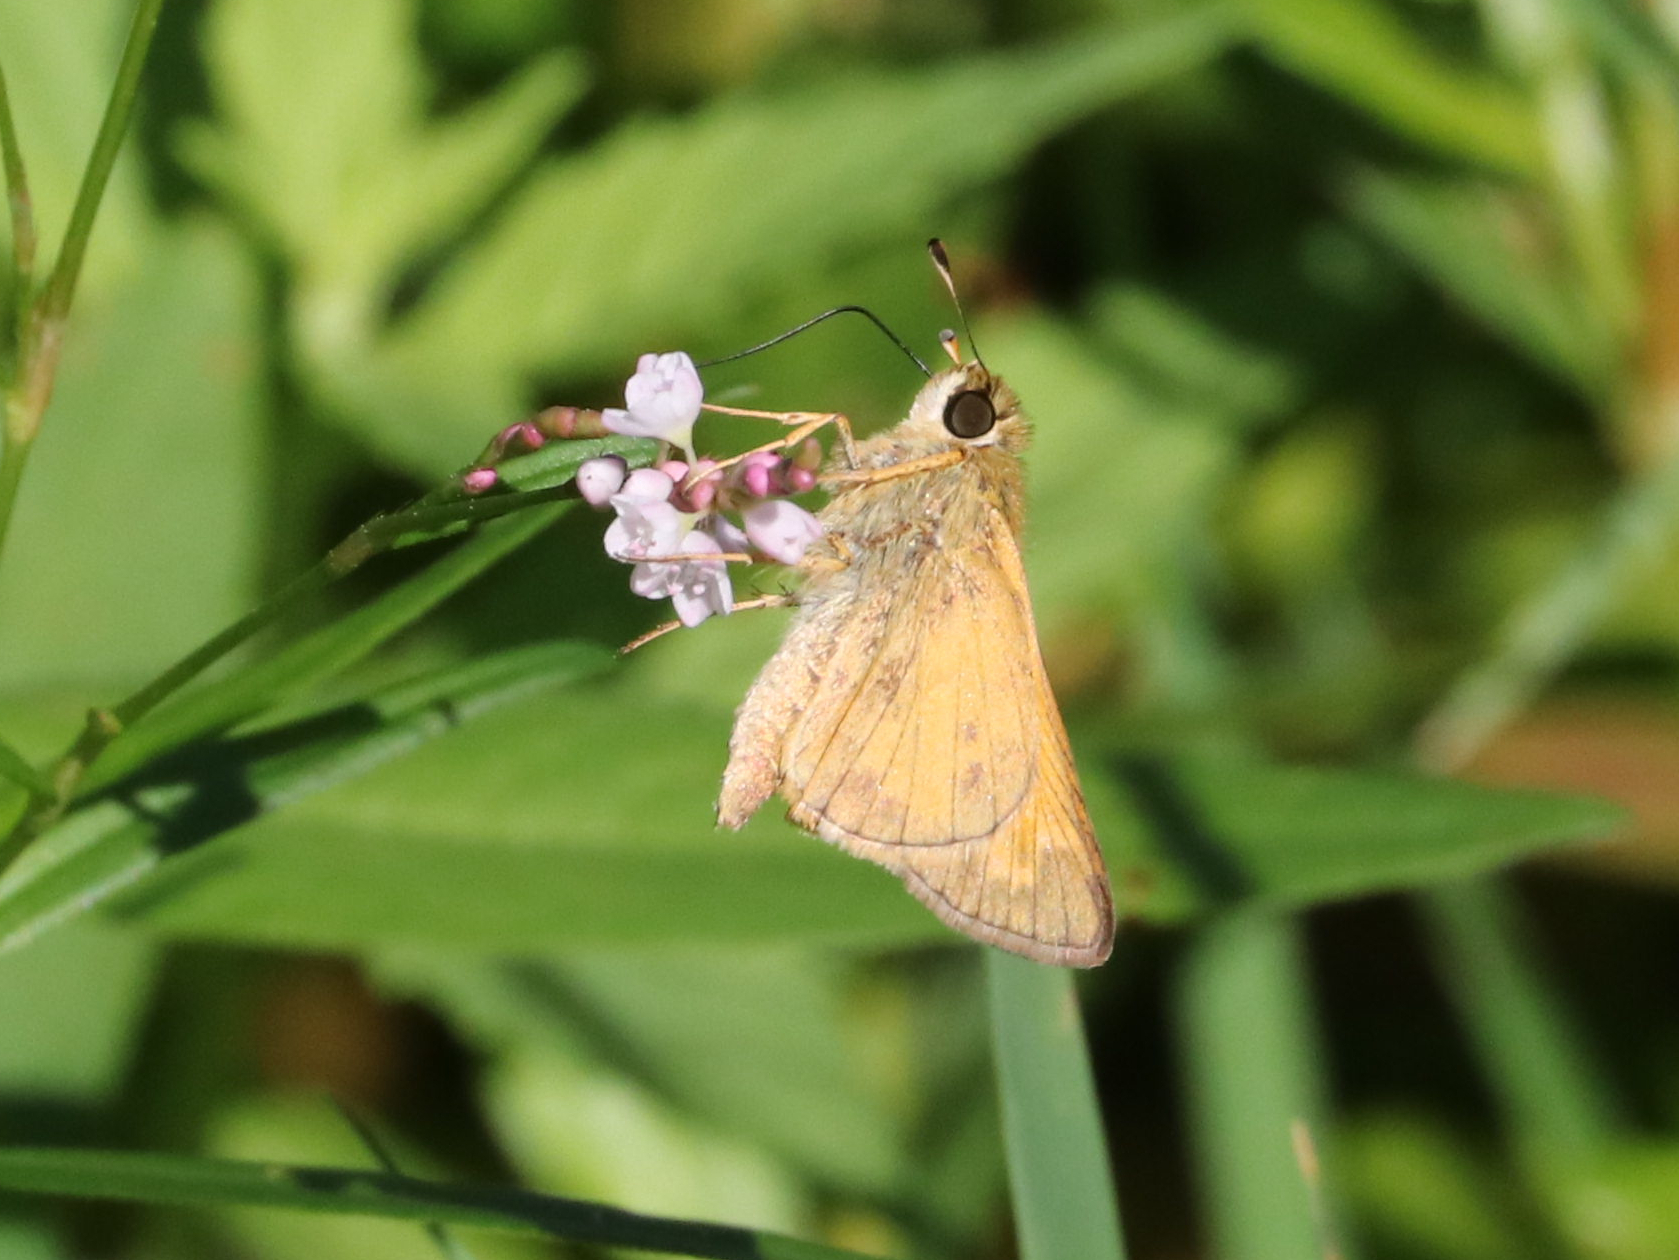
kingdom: Animalia
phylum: Arthropoda
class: Insecta
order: Lepidoptera
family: Hesperiidae
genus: Atalopedes
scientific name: Atalopedes
